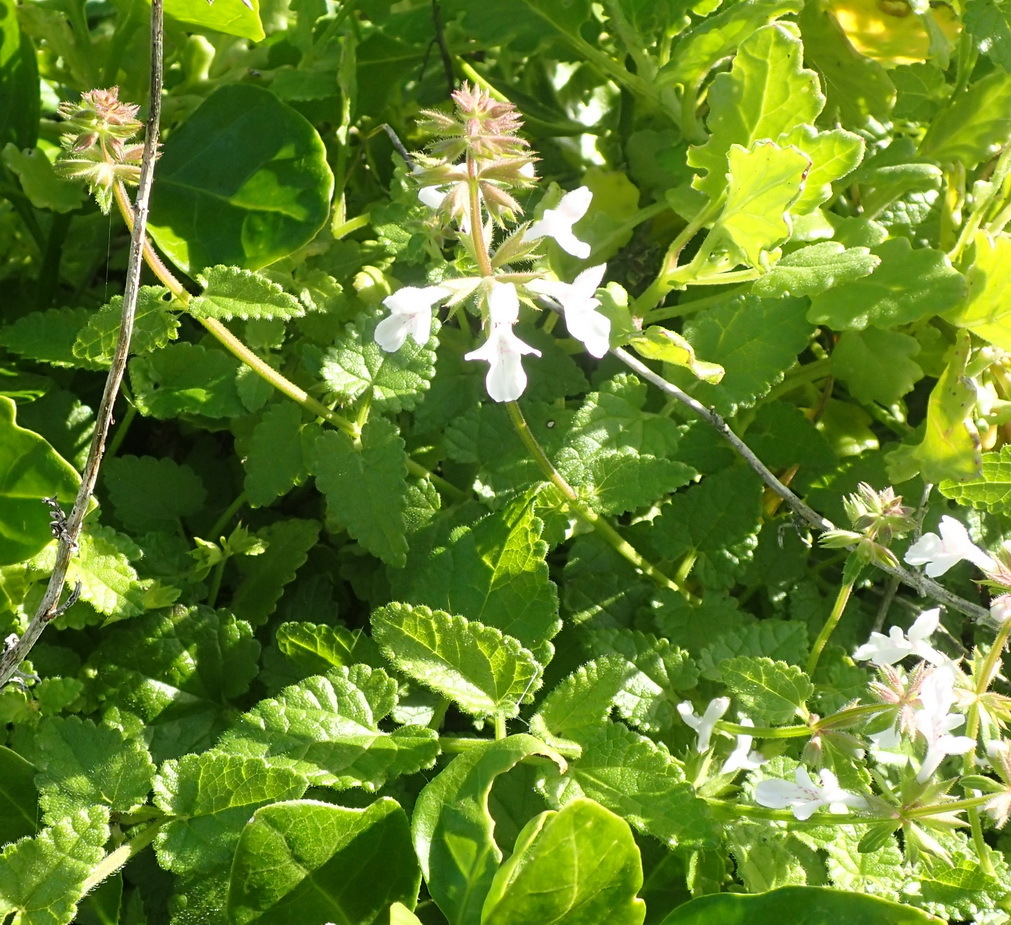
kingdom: Plantae
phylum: Tracheophyta
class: Magnoliopsida
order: Lamiales
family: Lamiaceae
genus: Stachys
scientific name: Stachys aethiopica
